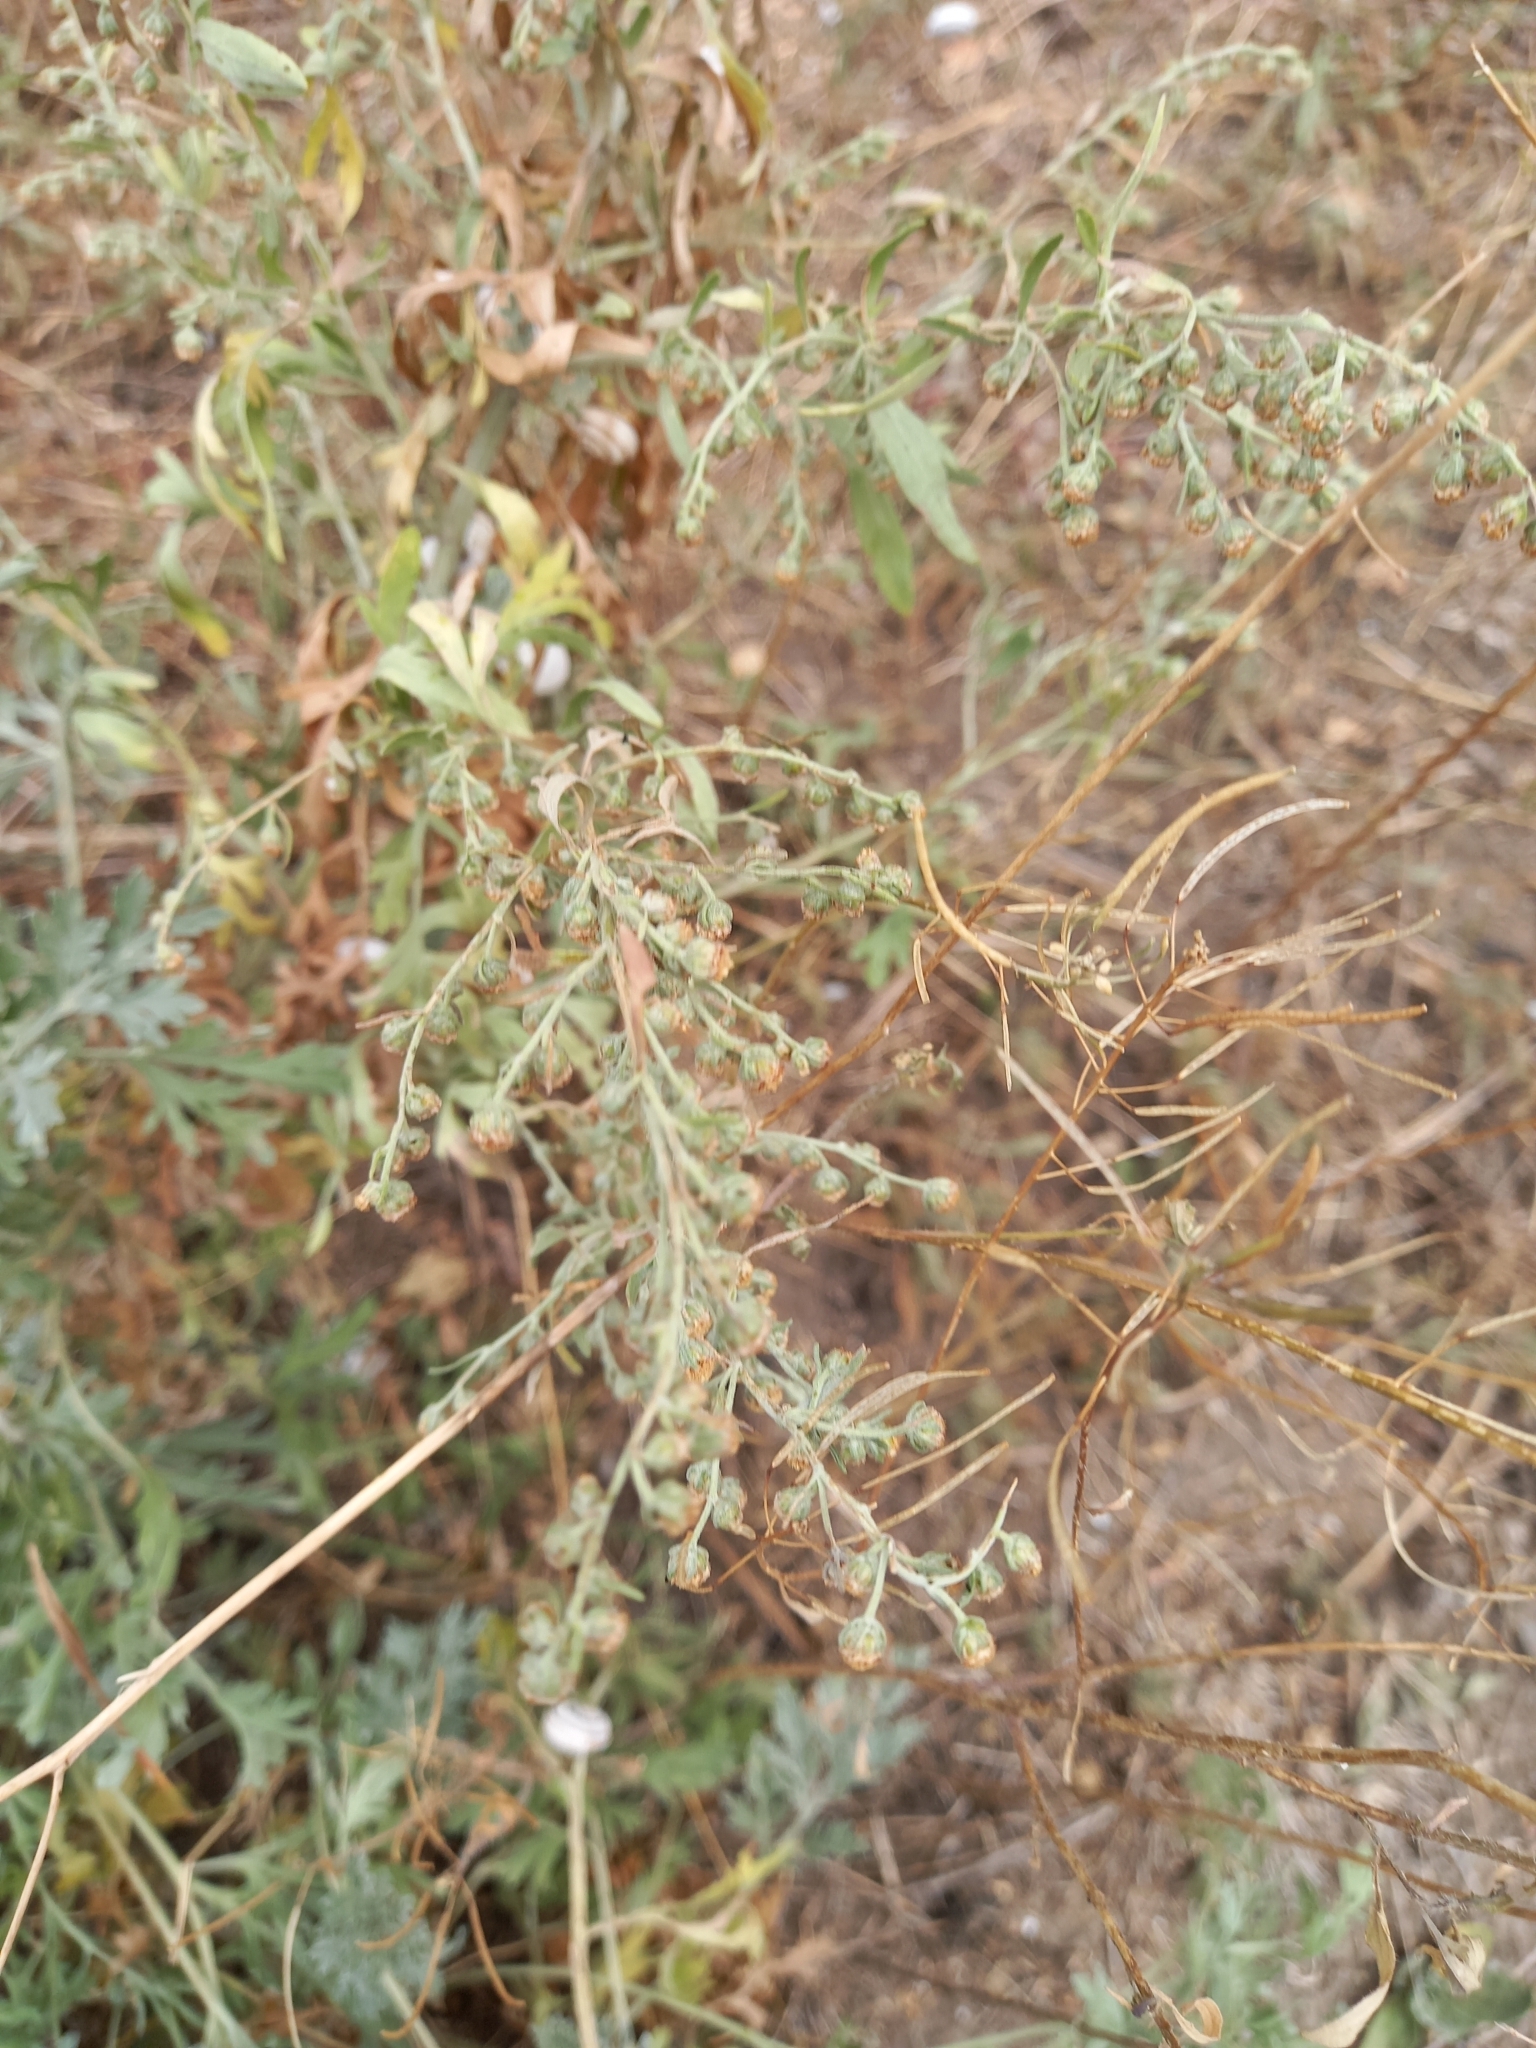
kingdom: Plantae
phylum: Tracheophyta
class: Magnoliopsida
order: Asterales
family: Asteraceae
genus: Artemisia
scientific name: Artemisia absinthium
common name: Wormwood
